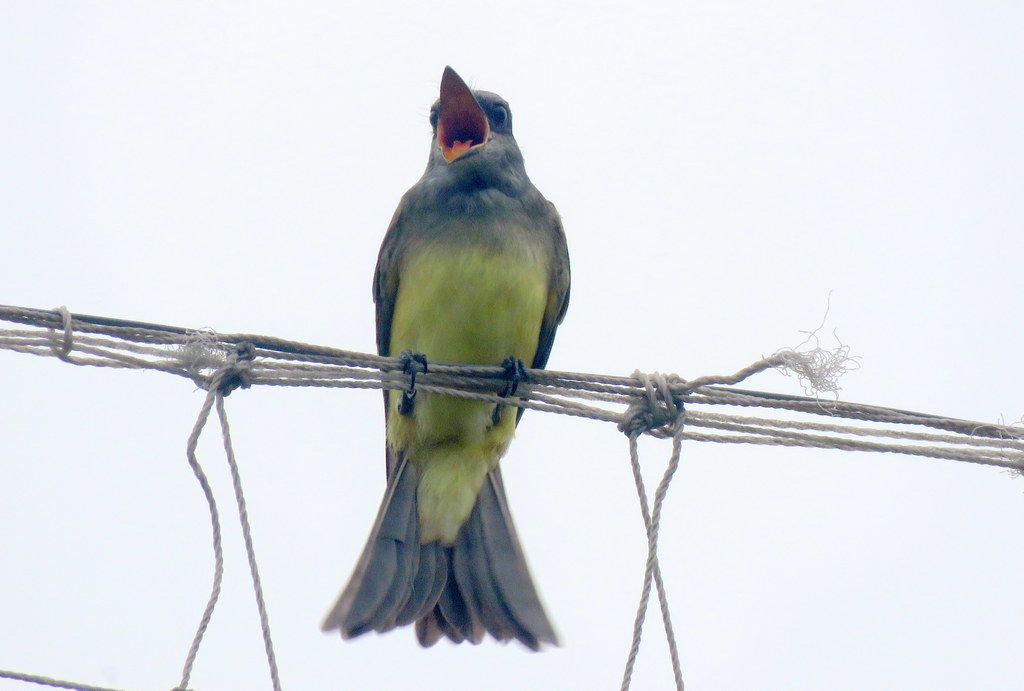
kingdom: Animalia
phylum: Chordata
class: Aves
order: Passeriformes
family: Tyrannidae
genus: Tyrannus
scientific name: Tyrannus melancholicus
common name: Tropical kingbird
